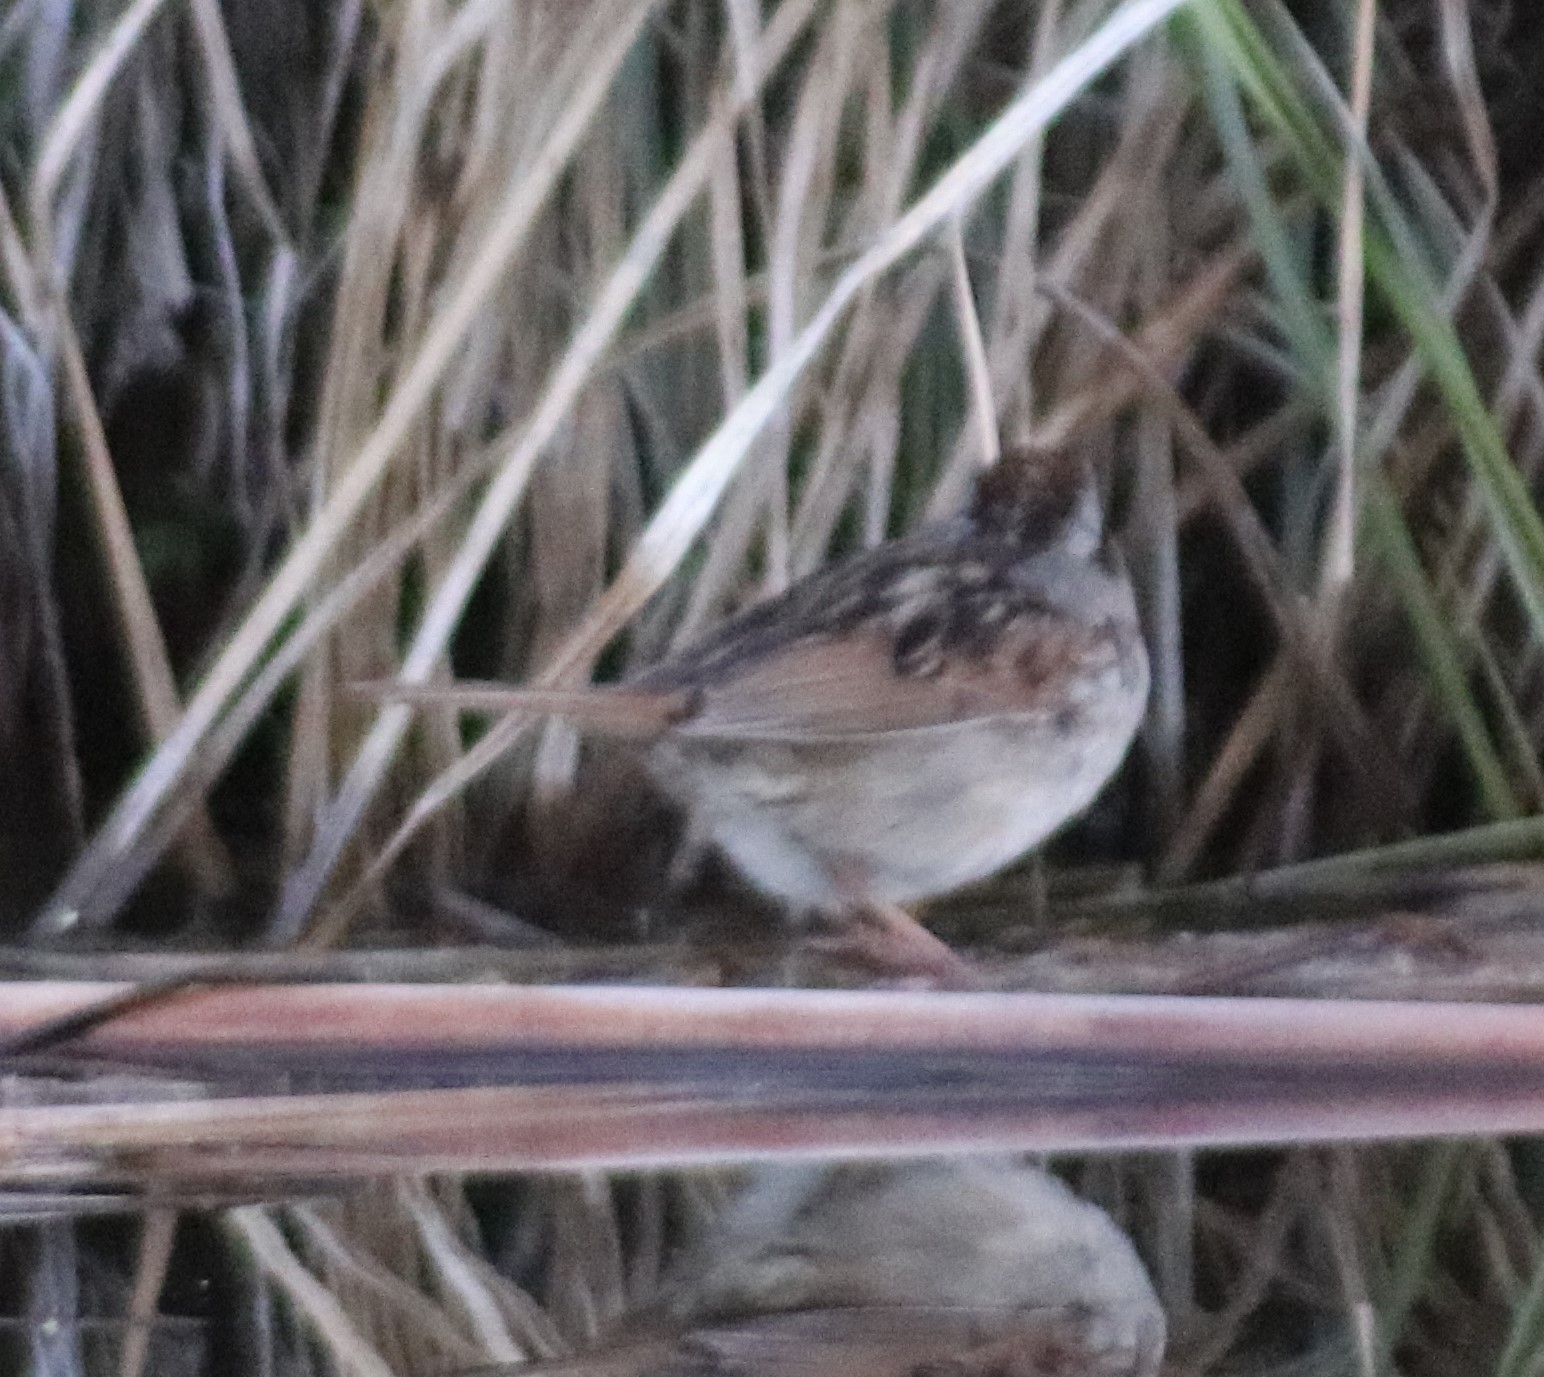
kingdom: Animalia
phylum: Chordata
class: Aves
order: Passeriformes
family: Passerellidae
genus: Melospiza
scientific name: Melospiza georgiana
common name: Swamp sparrow
